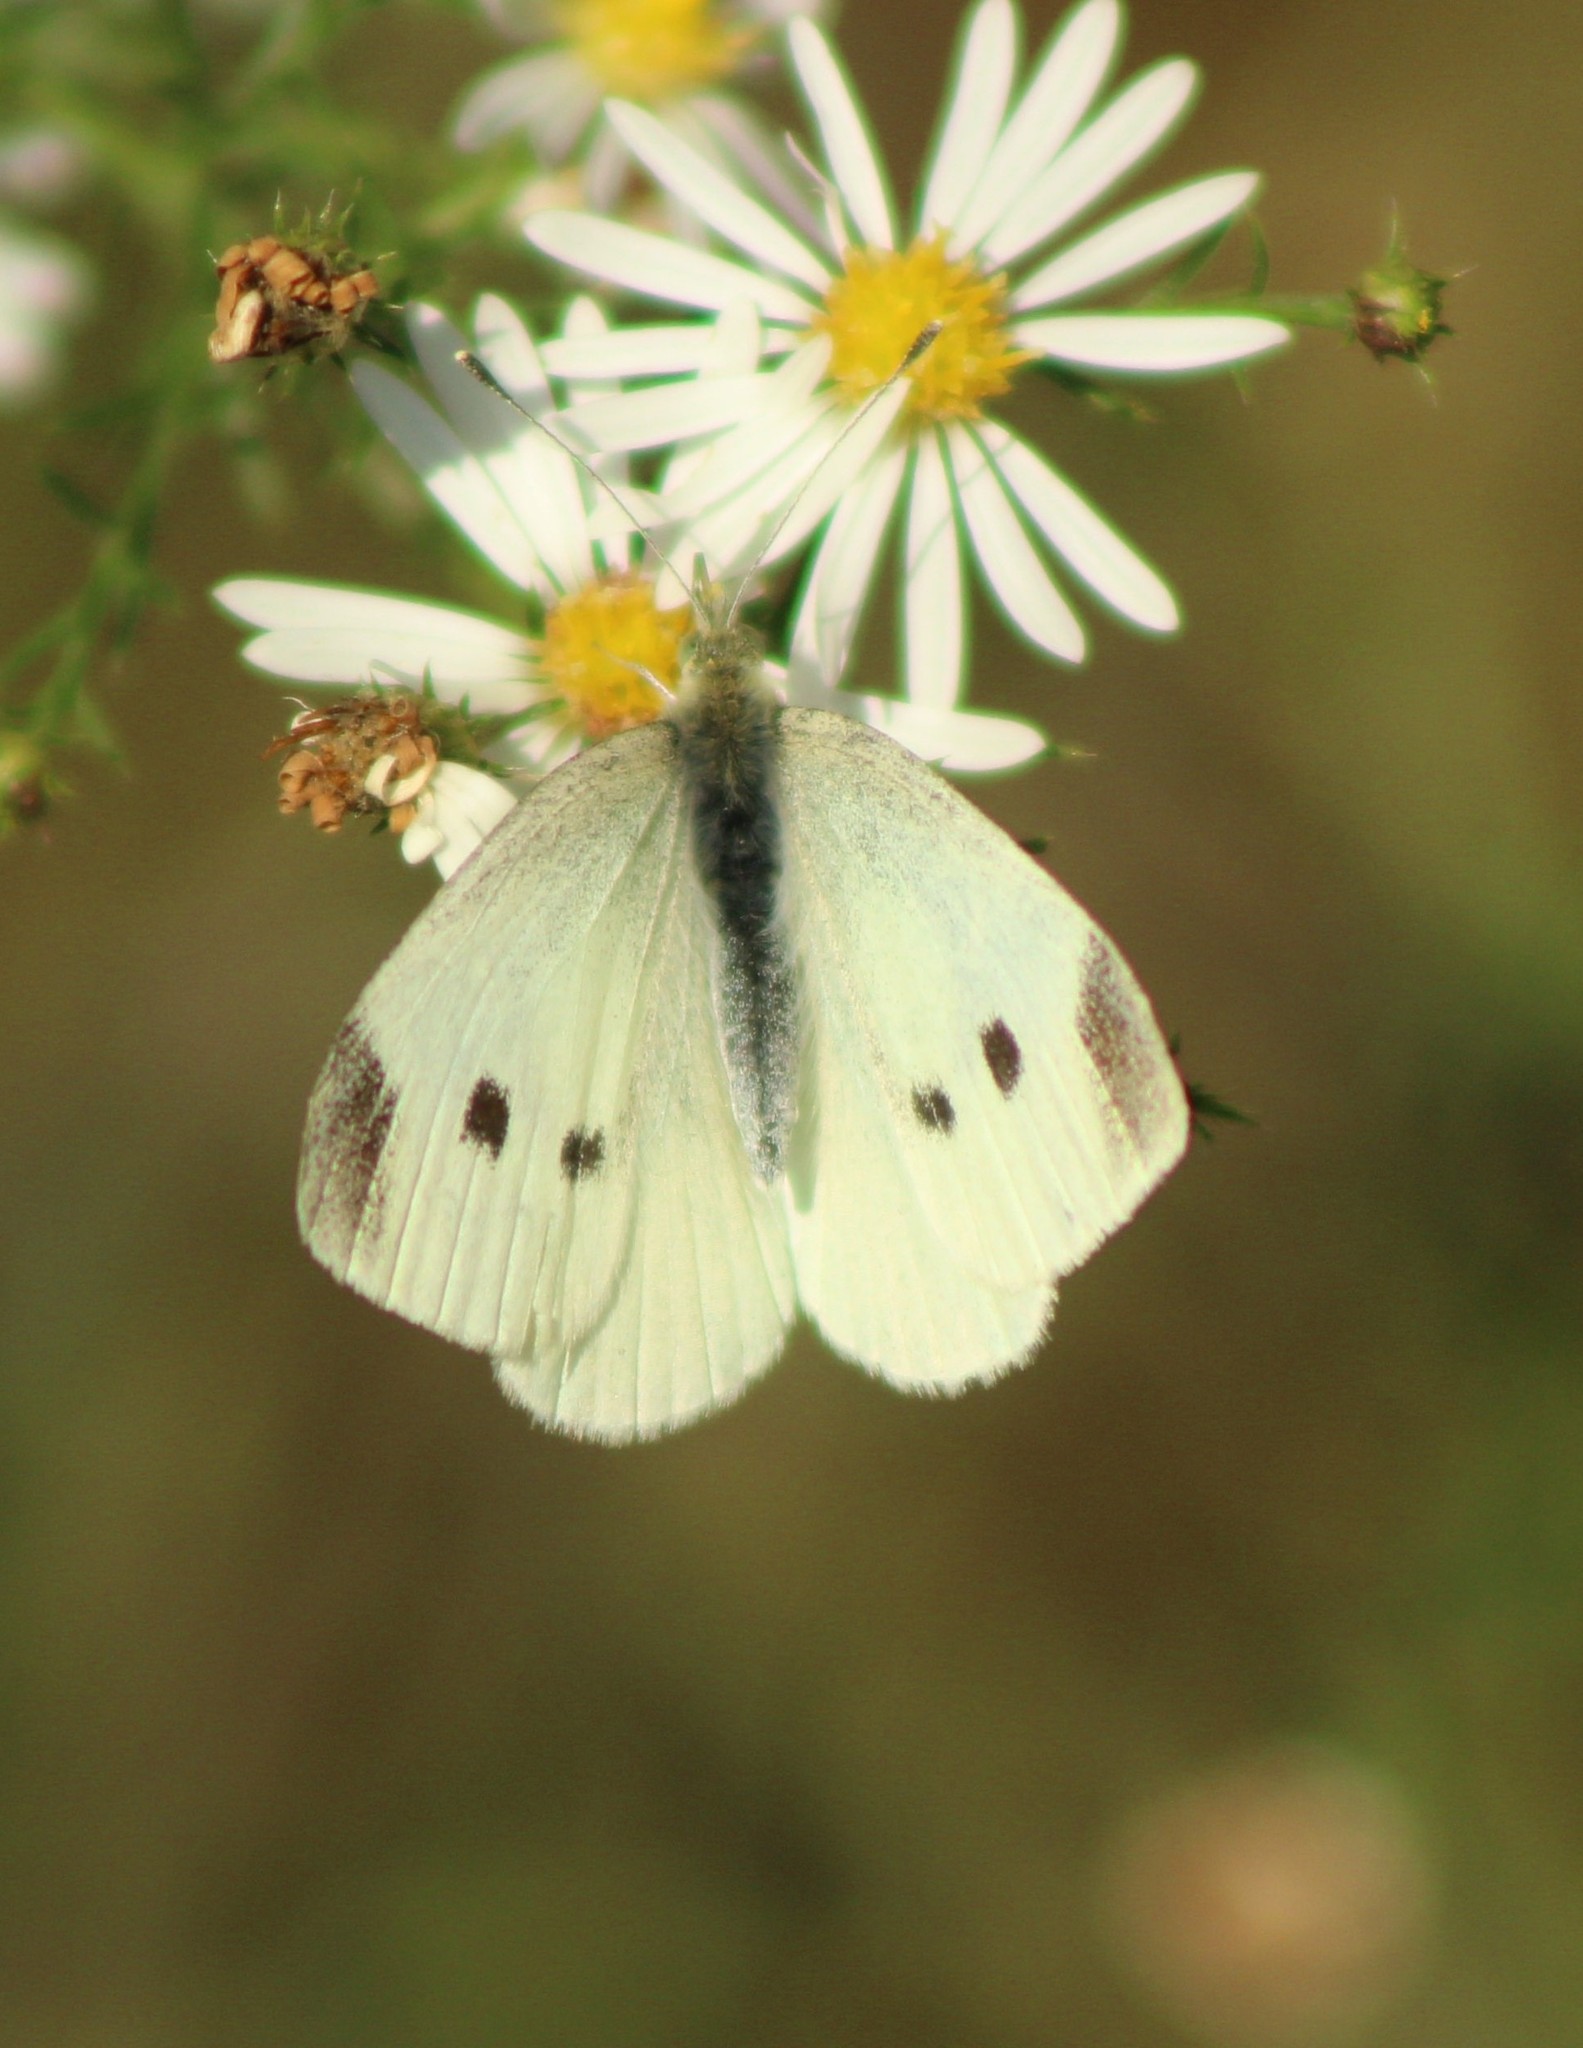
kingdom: Animalia
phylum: Arthropoda
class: Insecta
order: Lepidoptera
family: Pieridae
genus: Pieris
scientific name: Pieris rapae
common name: Small white
